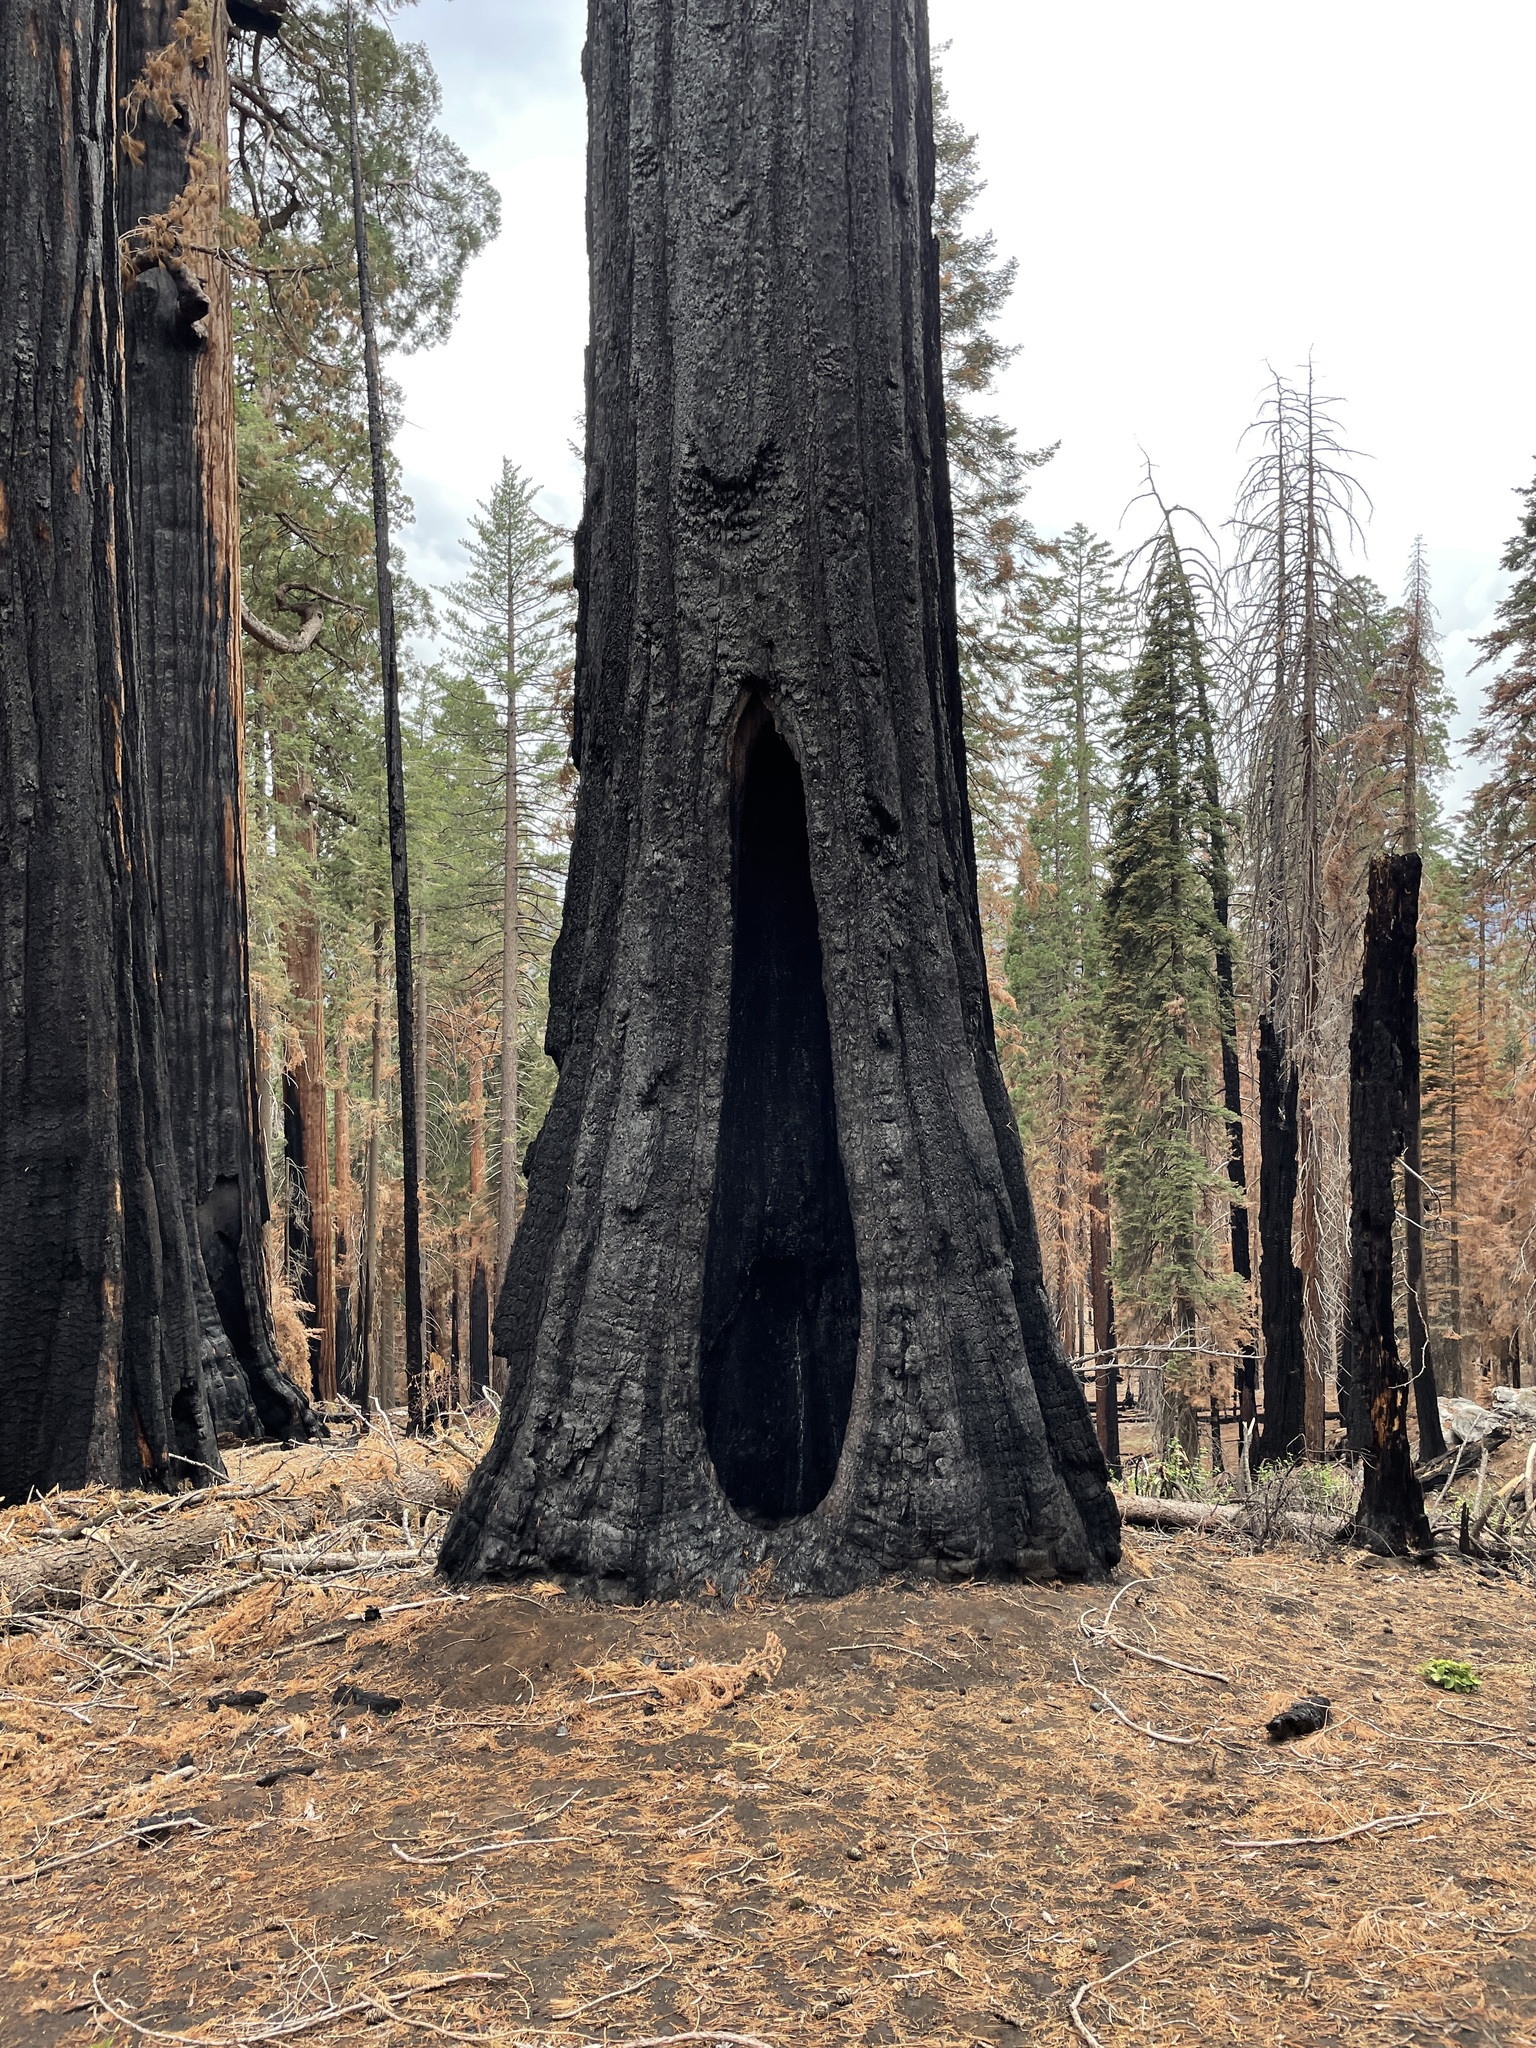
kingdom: Plantae
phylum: Tracheophyta
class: Pinopsida
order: Pinales
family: Cupressaceae
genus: Sequoiadendron
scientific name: Sequoiadendron giganteum
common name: Wellingtonia
